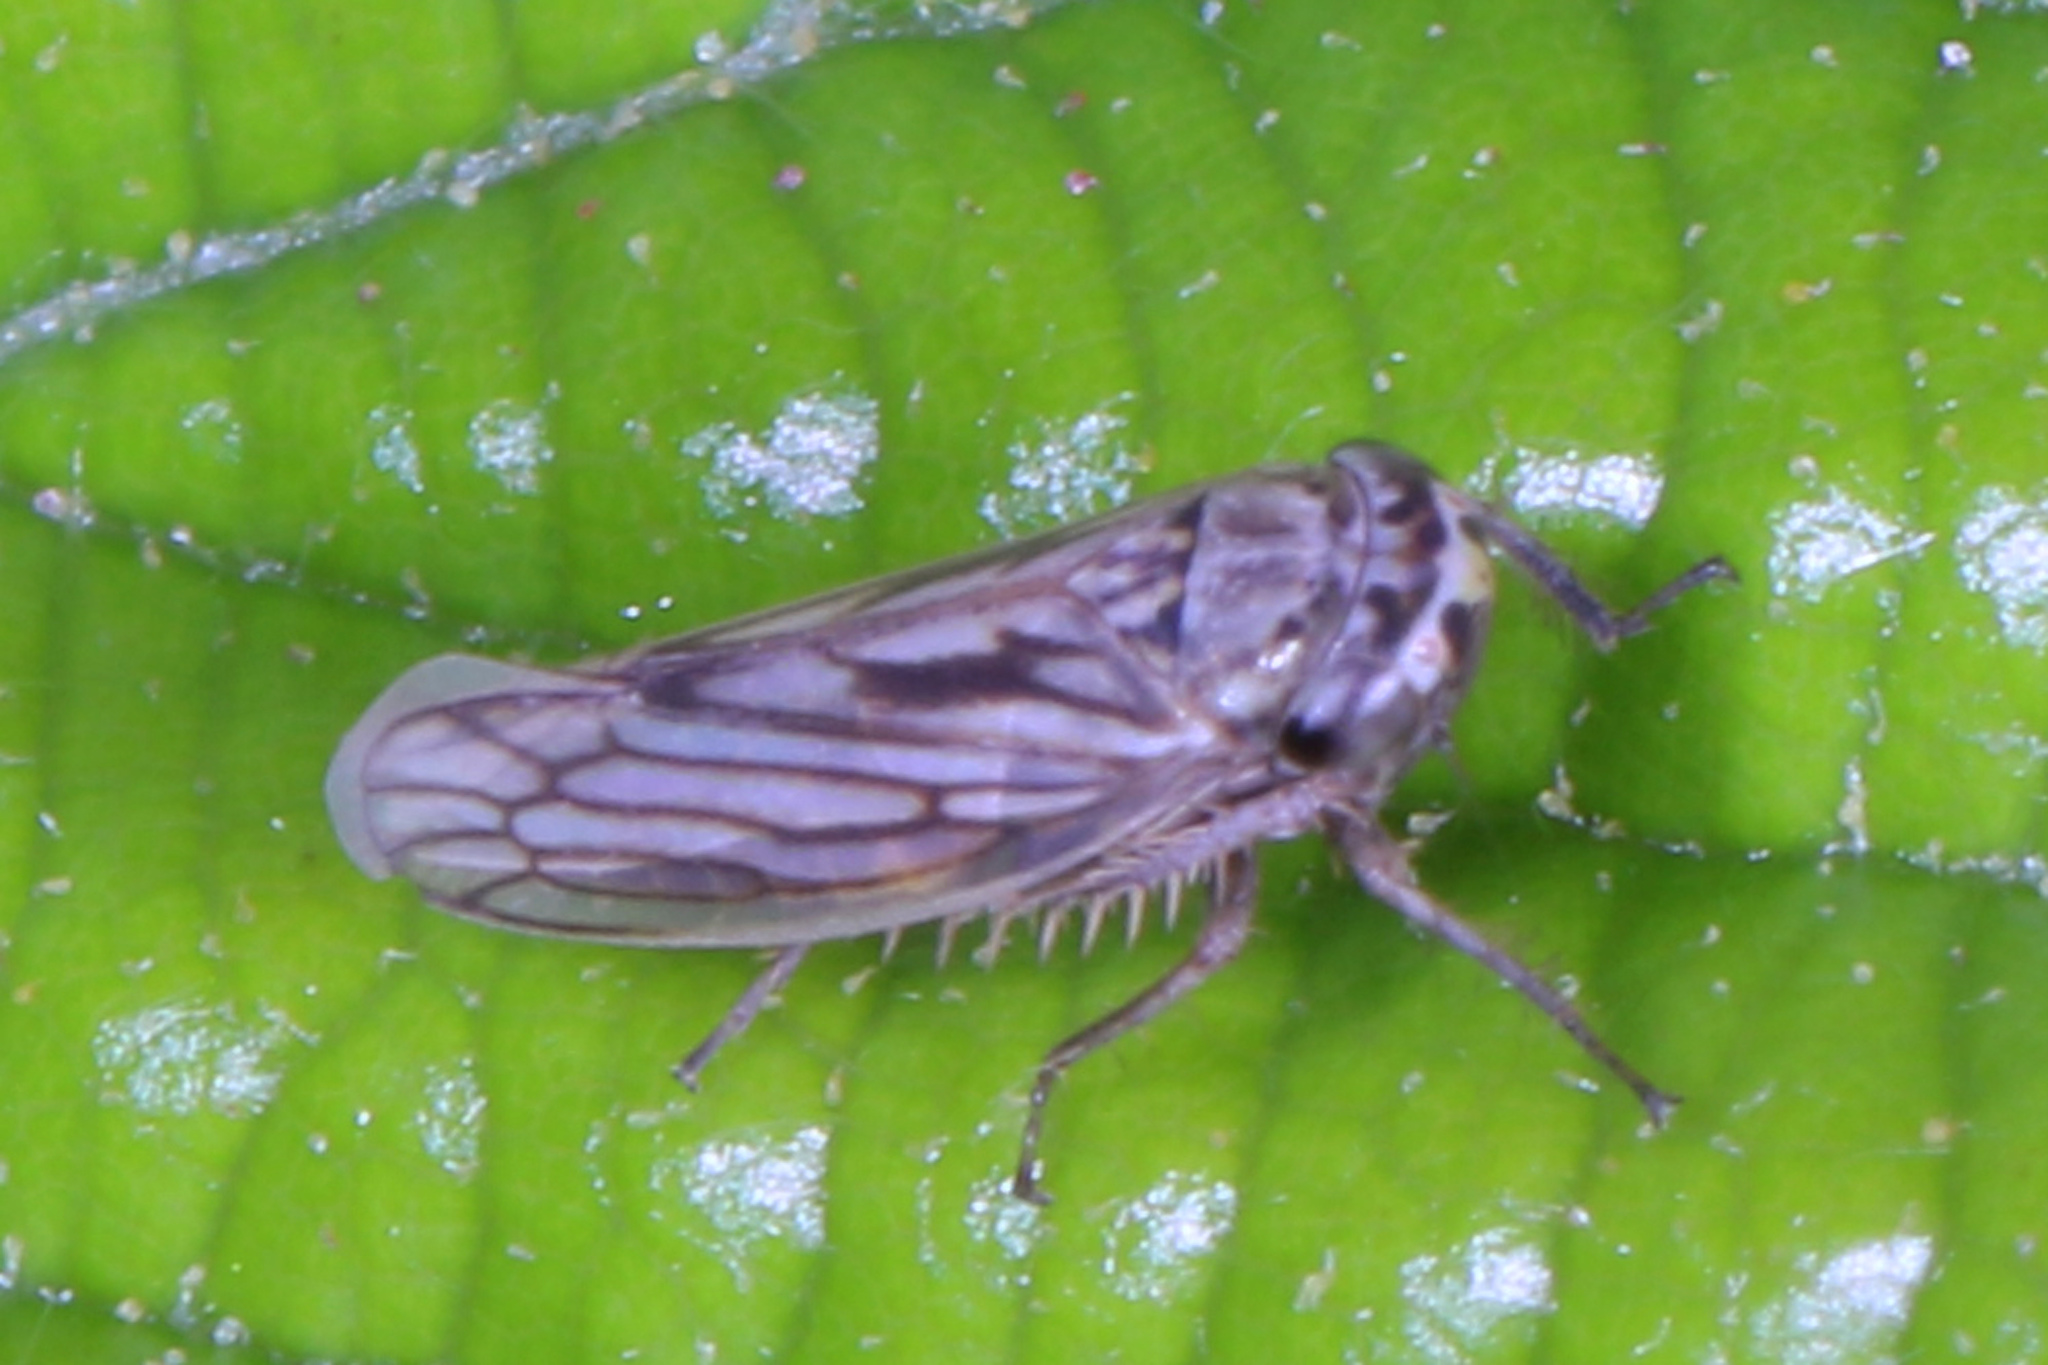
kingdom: Animalia
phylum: Arthropoda
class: Insecta
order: Hemiptera
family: Cicadellidae
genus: Exitianus
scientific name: Exitianus exitiosus
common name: Gray lawn leafhopper
